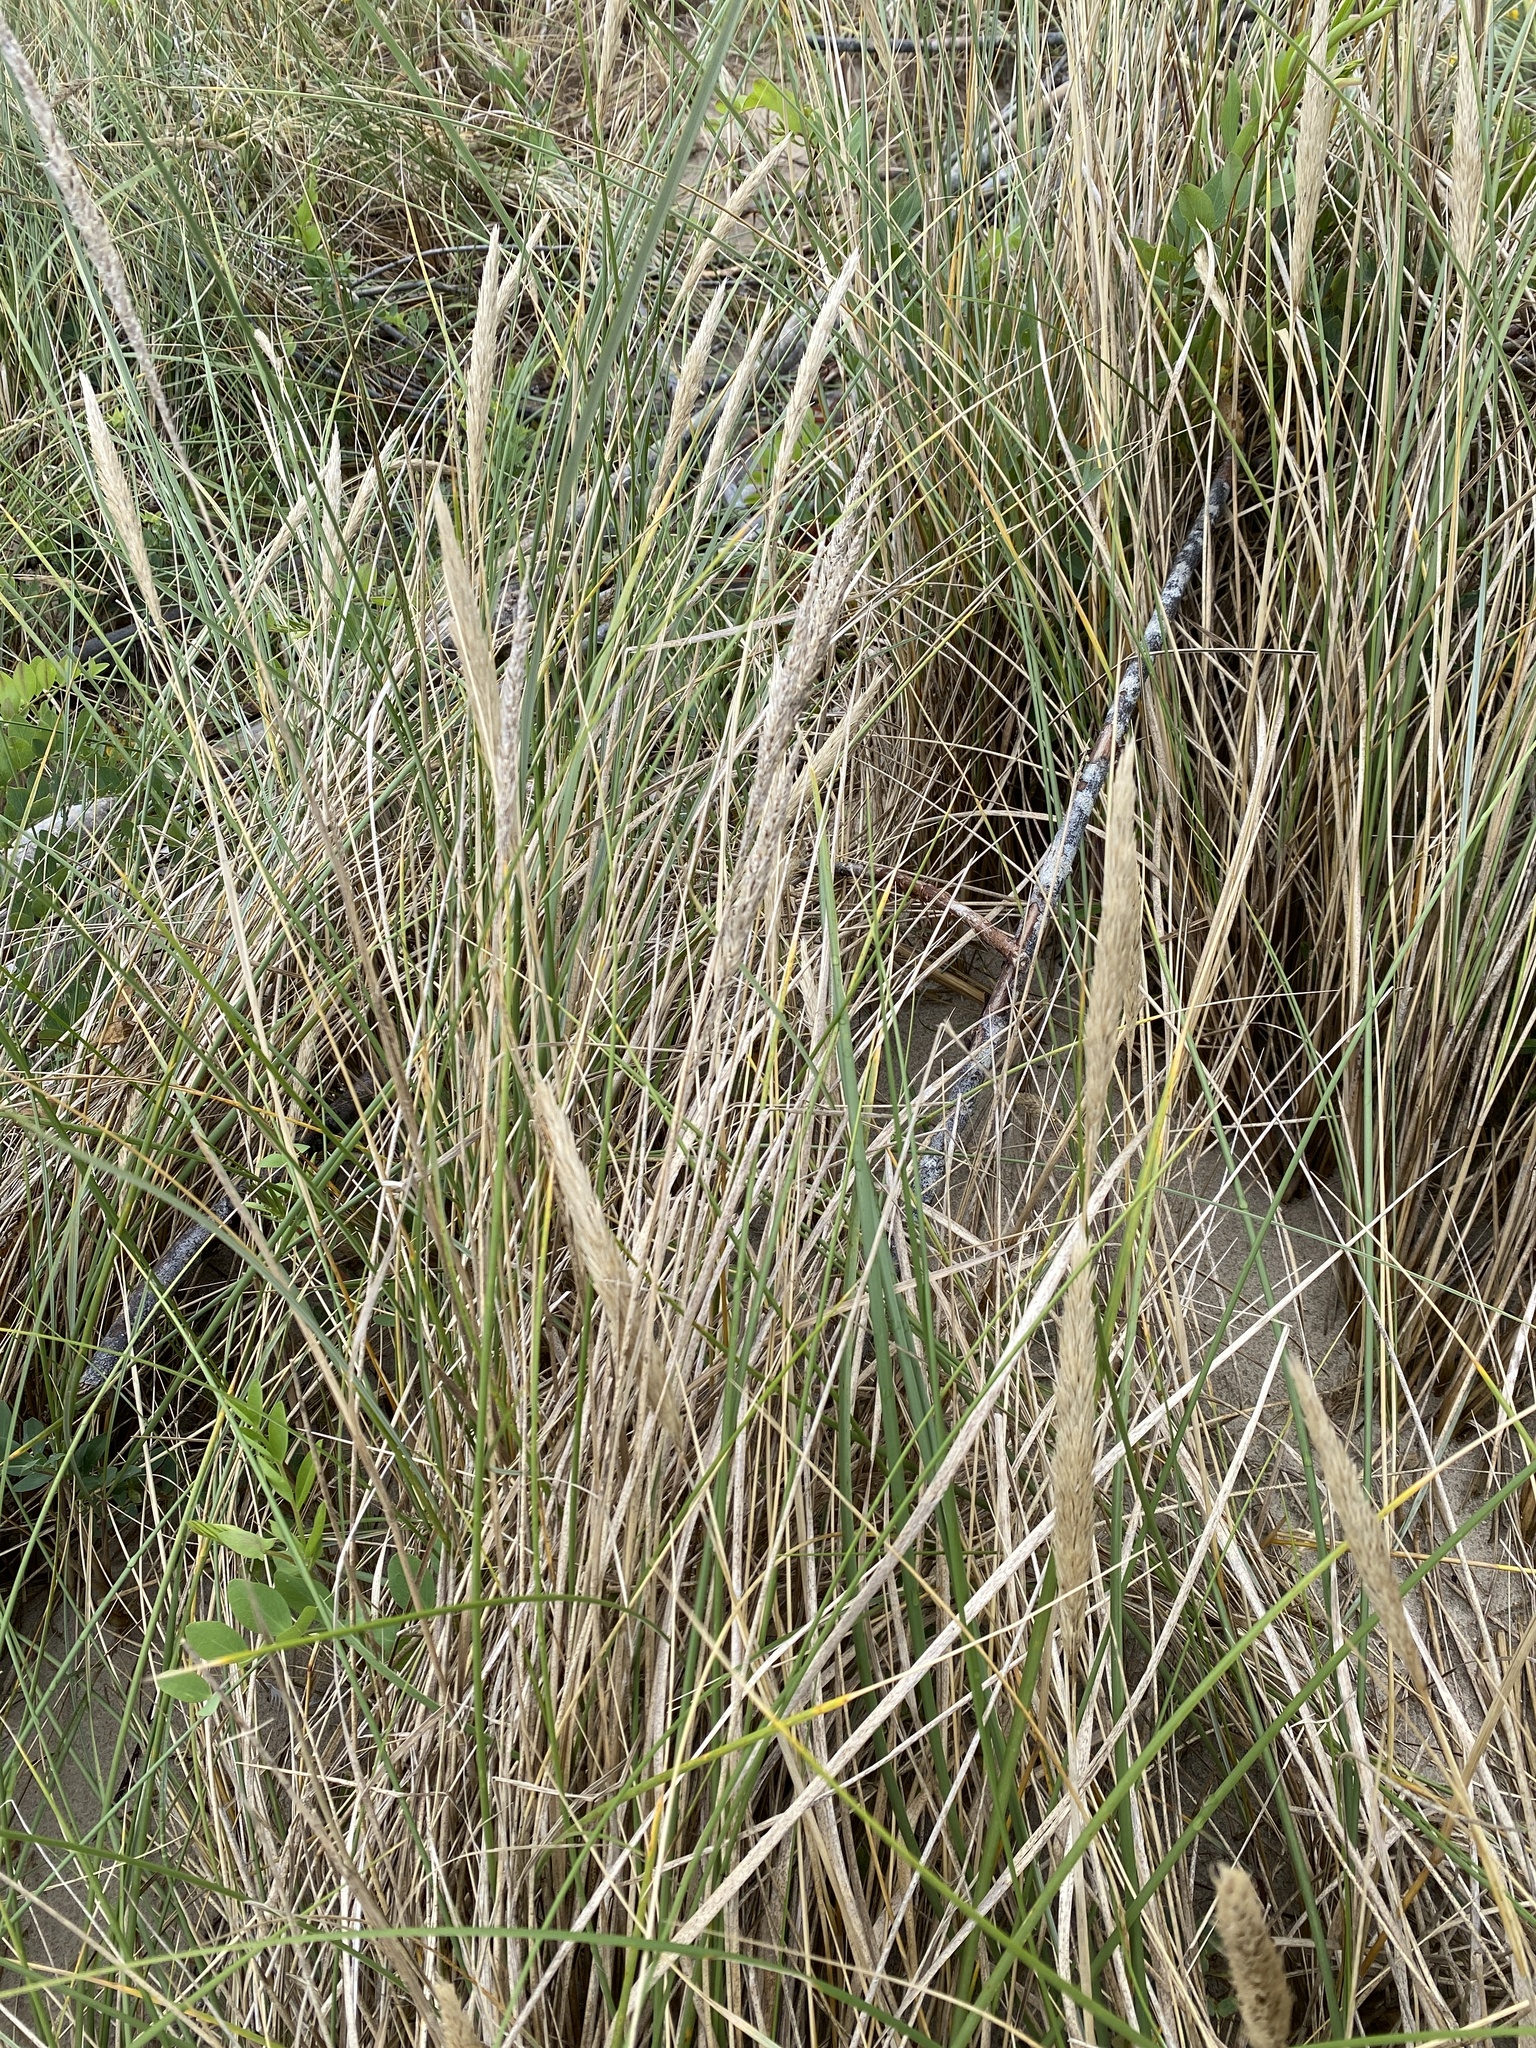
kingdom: Plantae
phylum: Tracheophyta
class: Liliopsida
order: Poales
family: Poaceae
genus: Calamagrostis
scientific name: Calamagrostis arenaria
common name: European beachgrass
